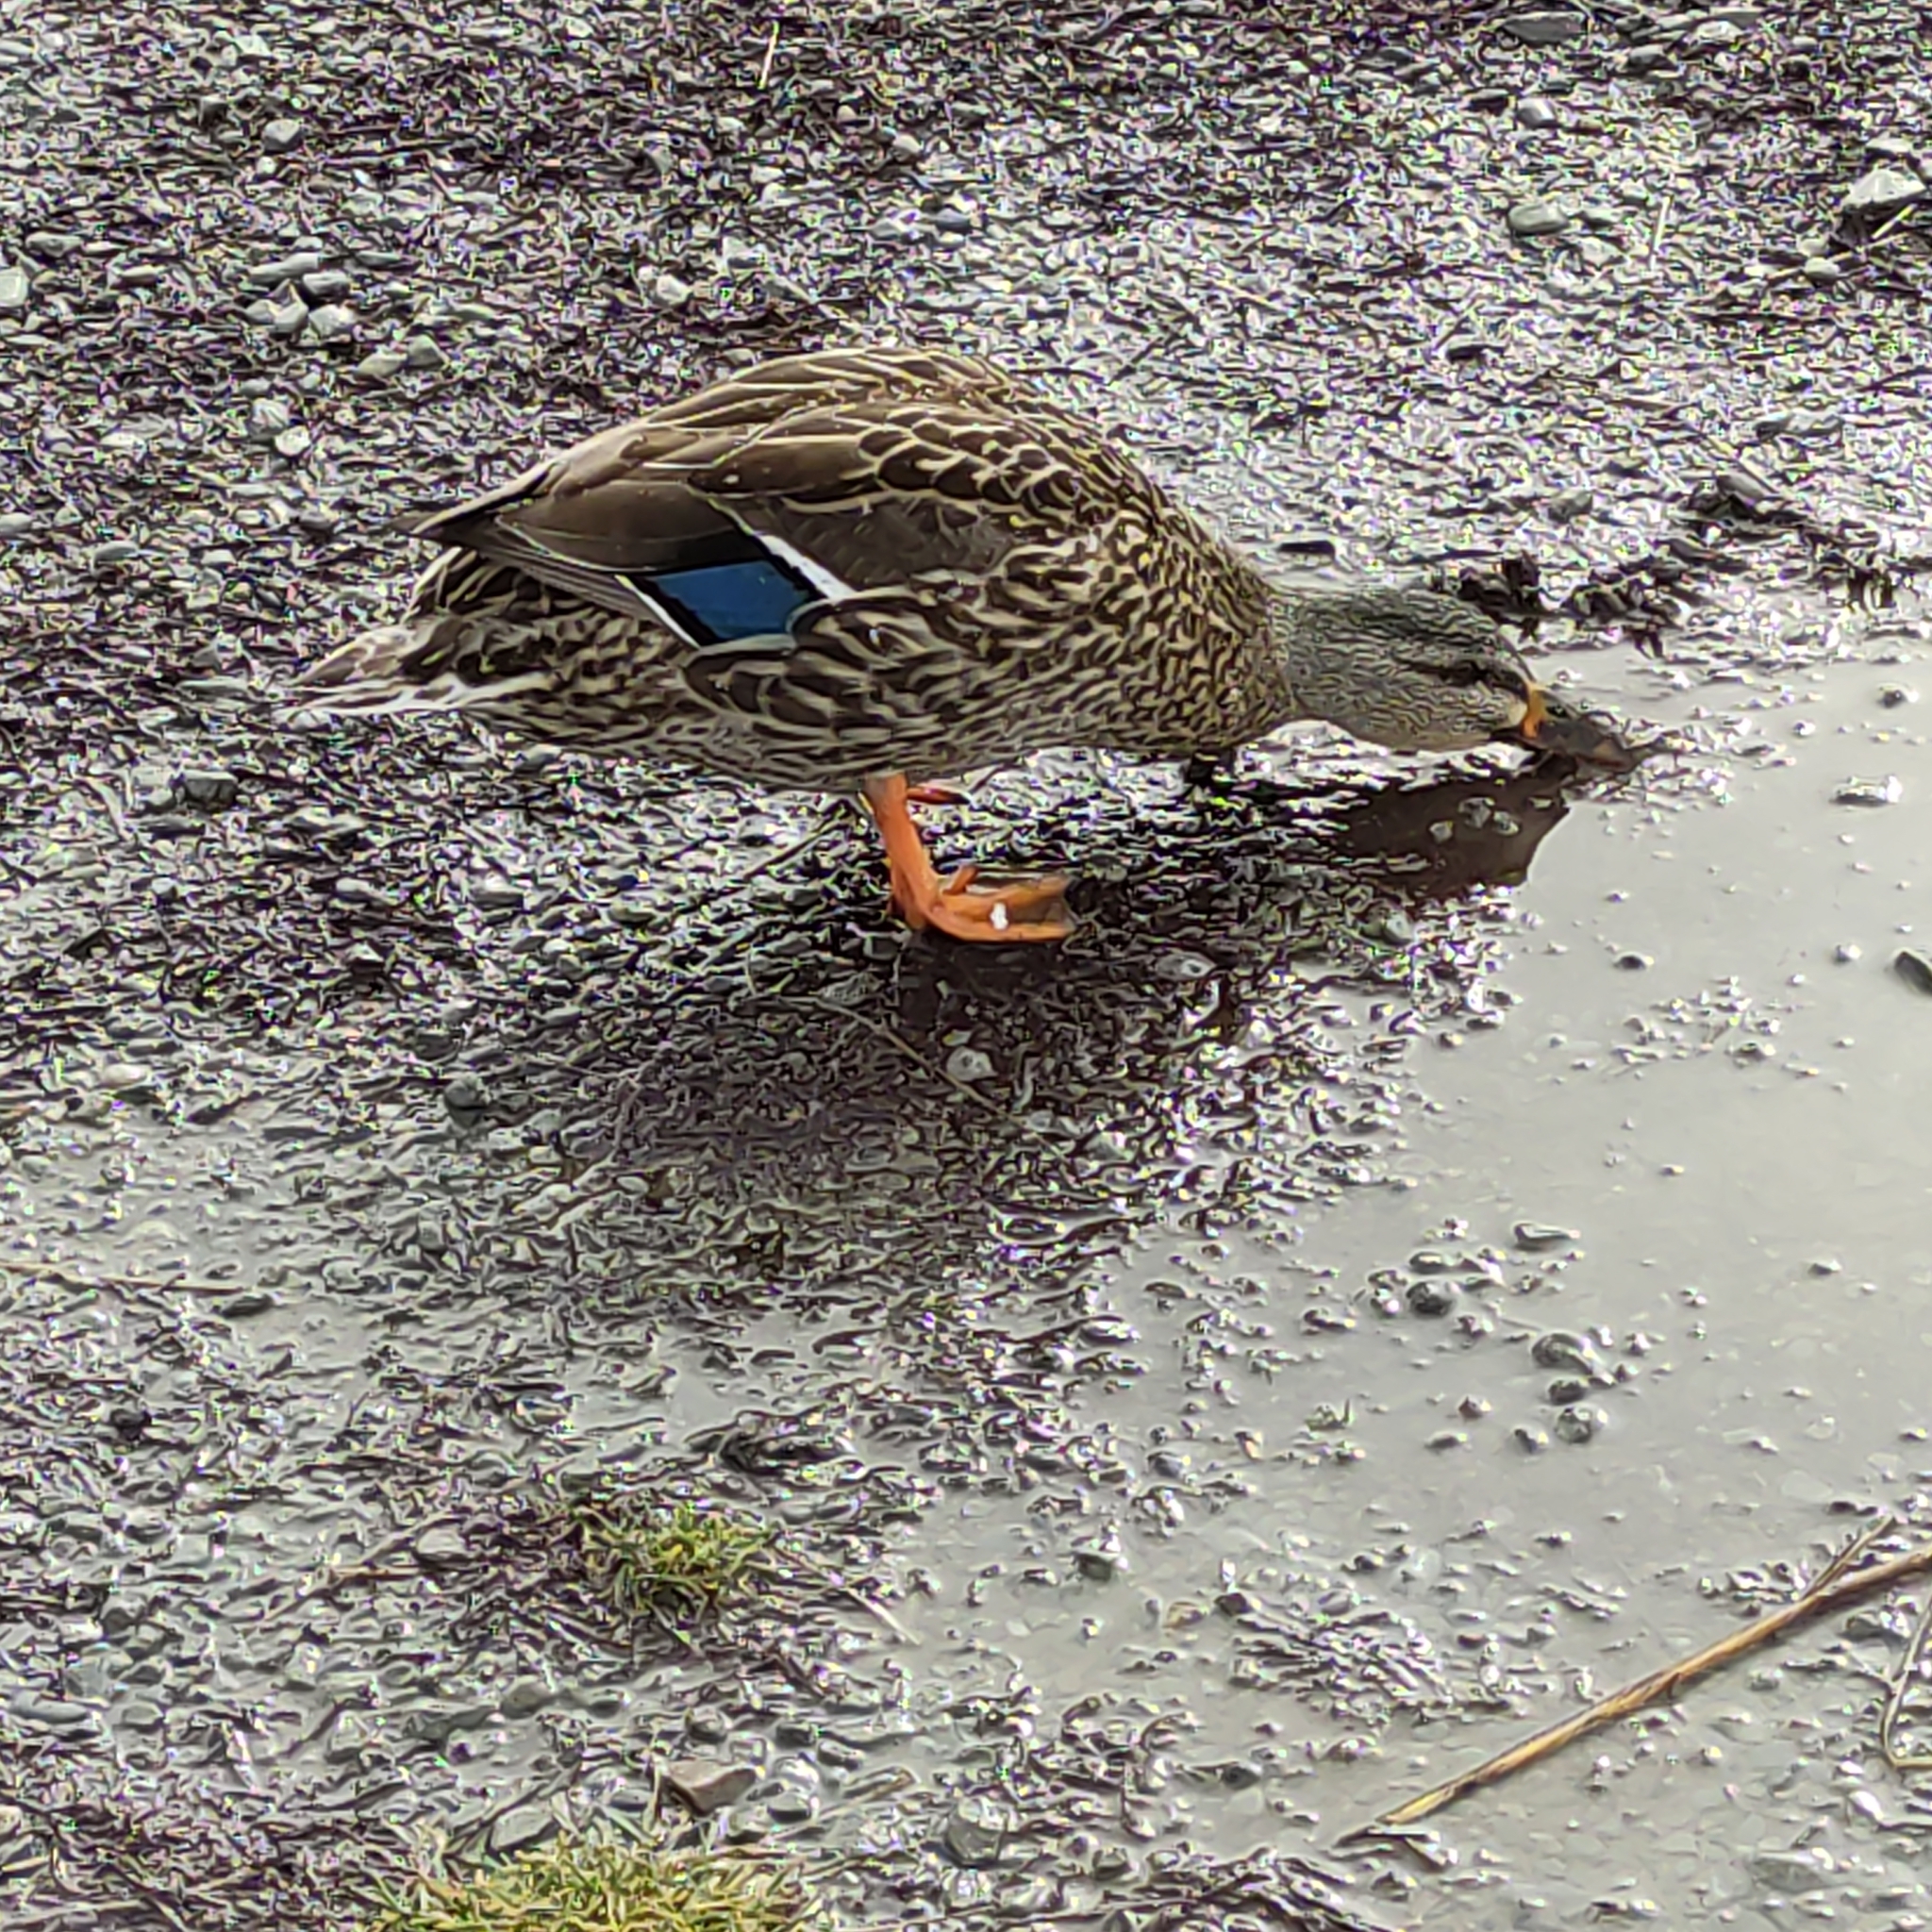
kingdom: Animalia
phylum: Chordata
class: Aves
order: Anseriformes
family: Anatidae
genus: Anas
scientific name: Anas platyrhynchos
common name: Mallard
